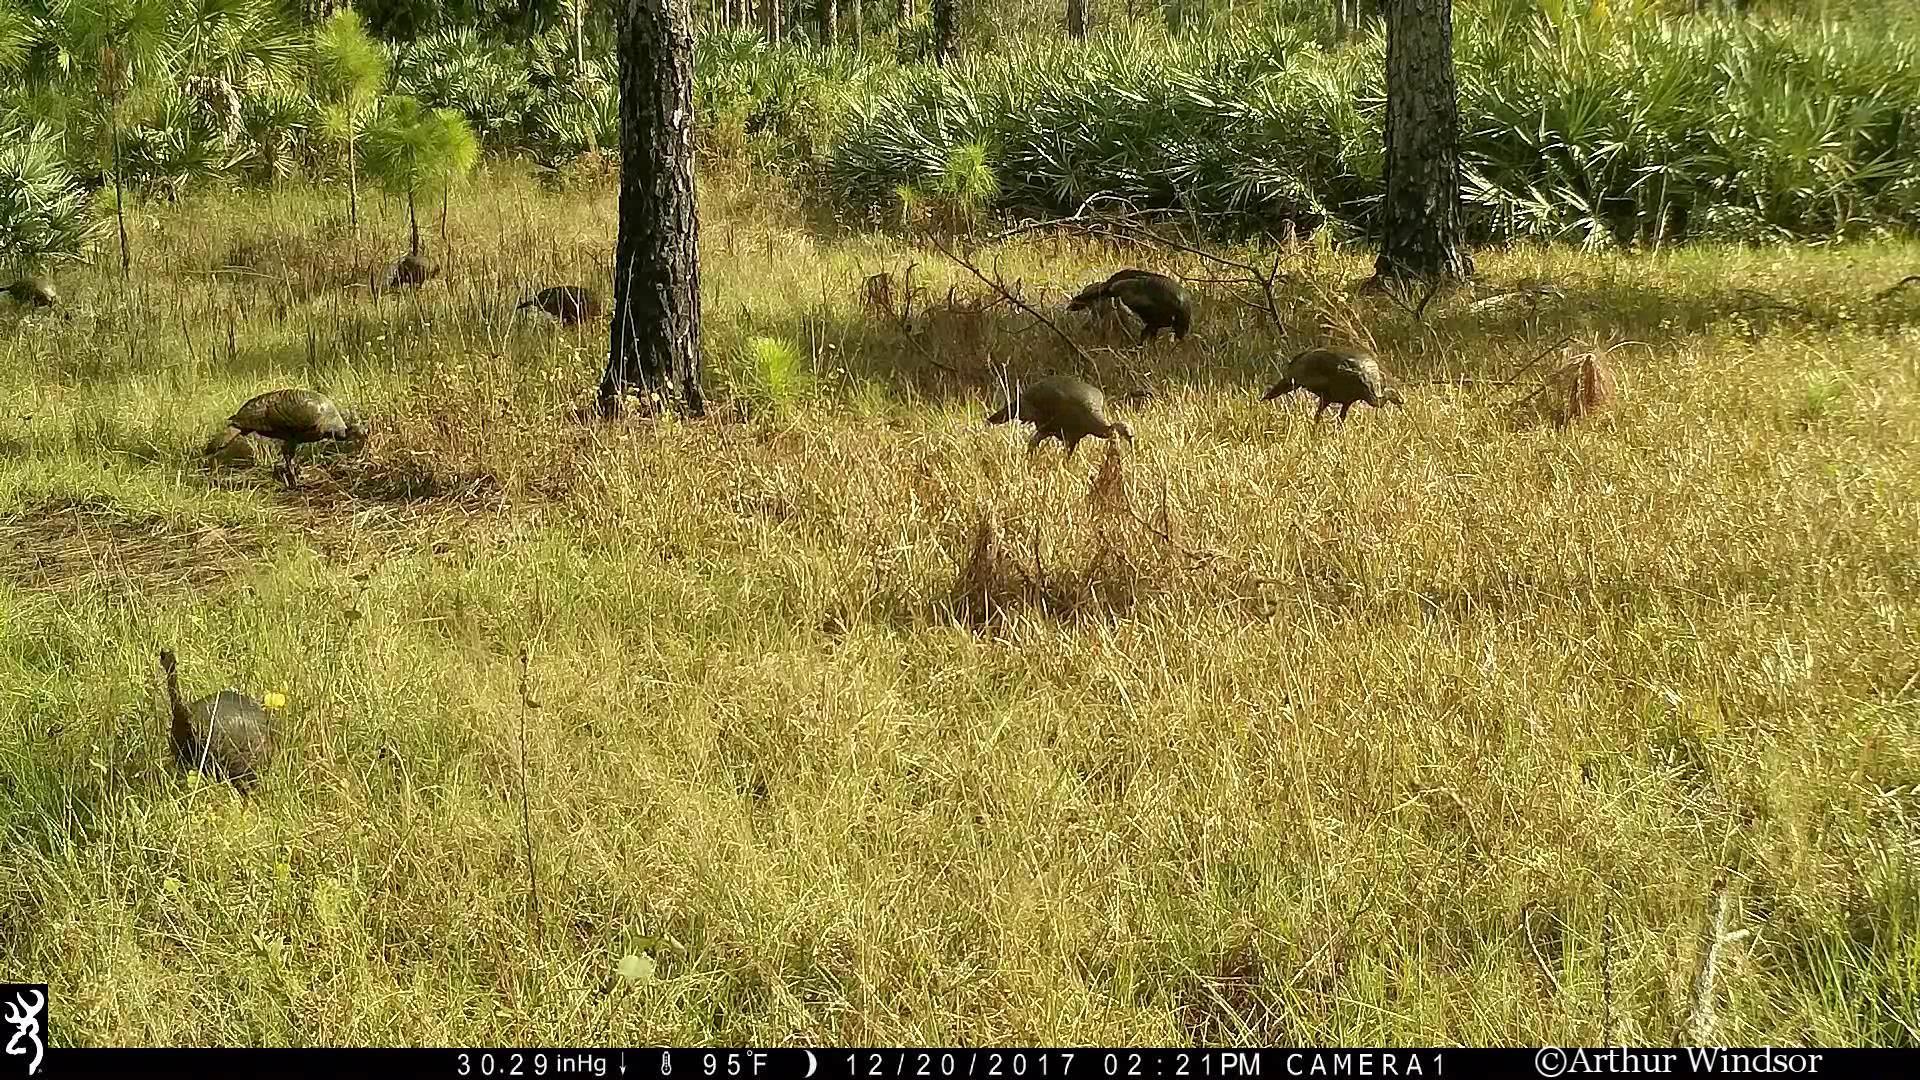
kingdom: Animalia
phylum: Chordata
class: Aves
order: Galliformes
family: Phasianidae
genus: Meleagris
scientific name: Meleagris gallopavo
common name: Wild turkey
